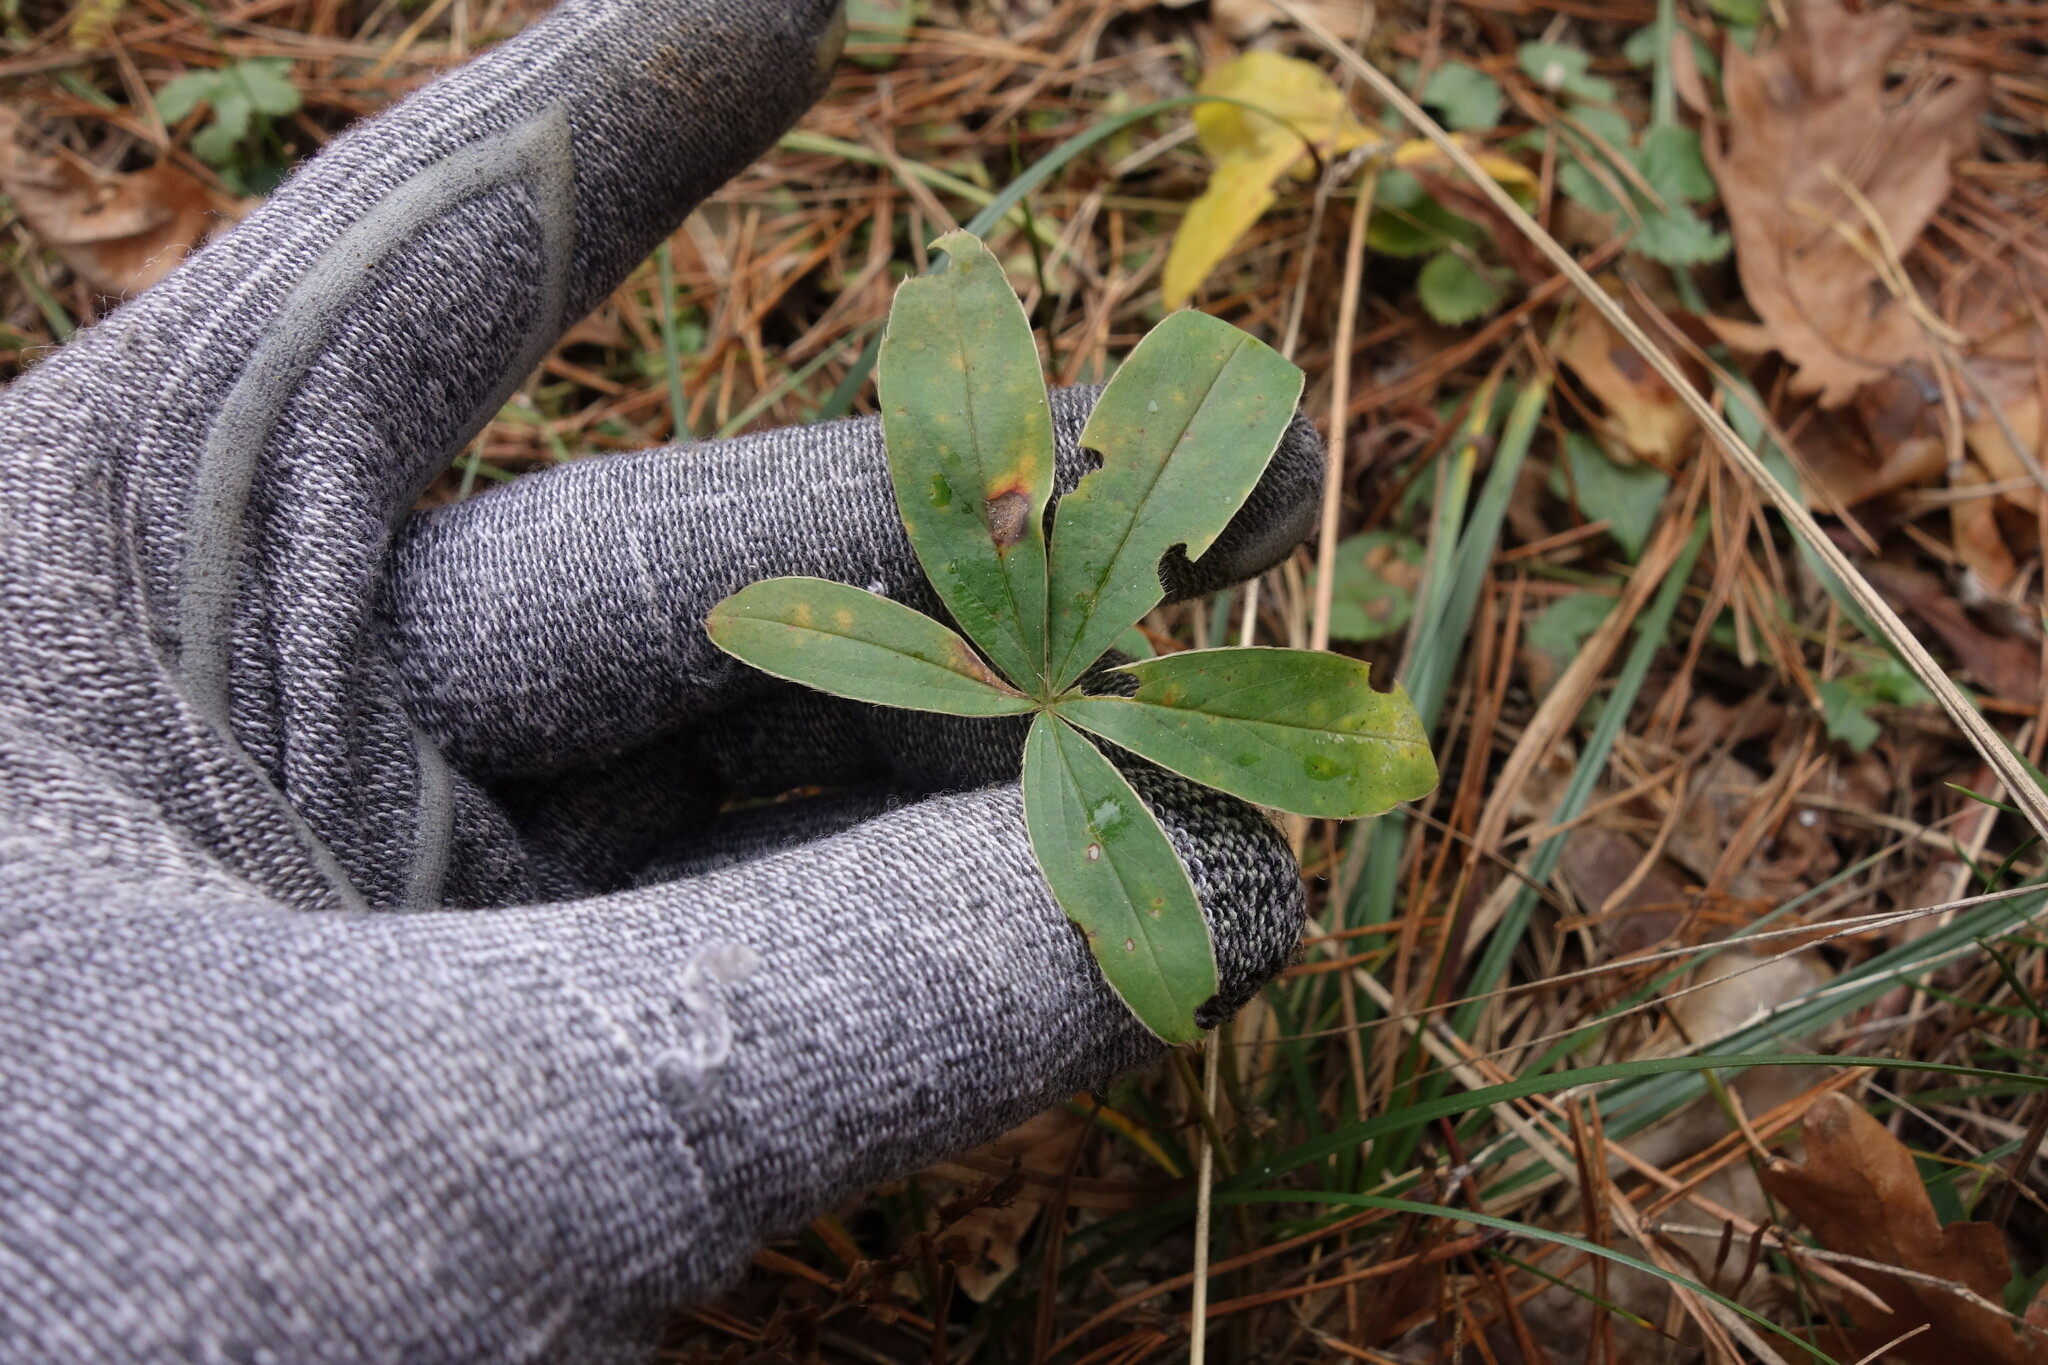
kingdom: Plantae
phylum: Tracheophyta
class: Magnoliopsida
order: Rosales
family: Rosaceae
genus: Potentilla
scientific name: Potentilla alba
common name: White cinquefoil
